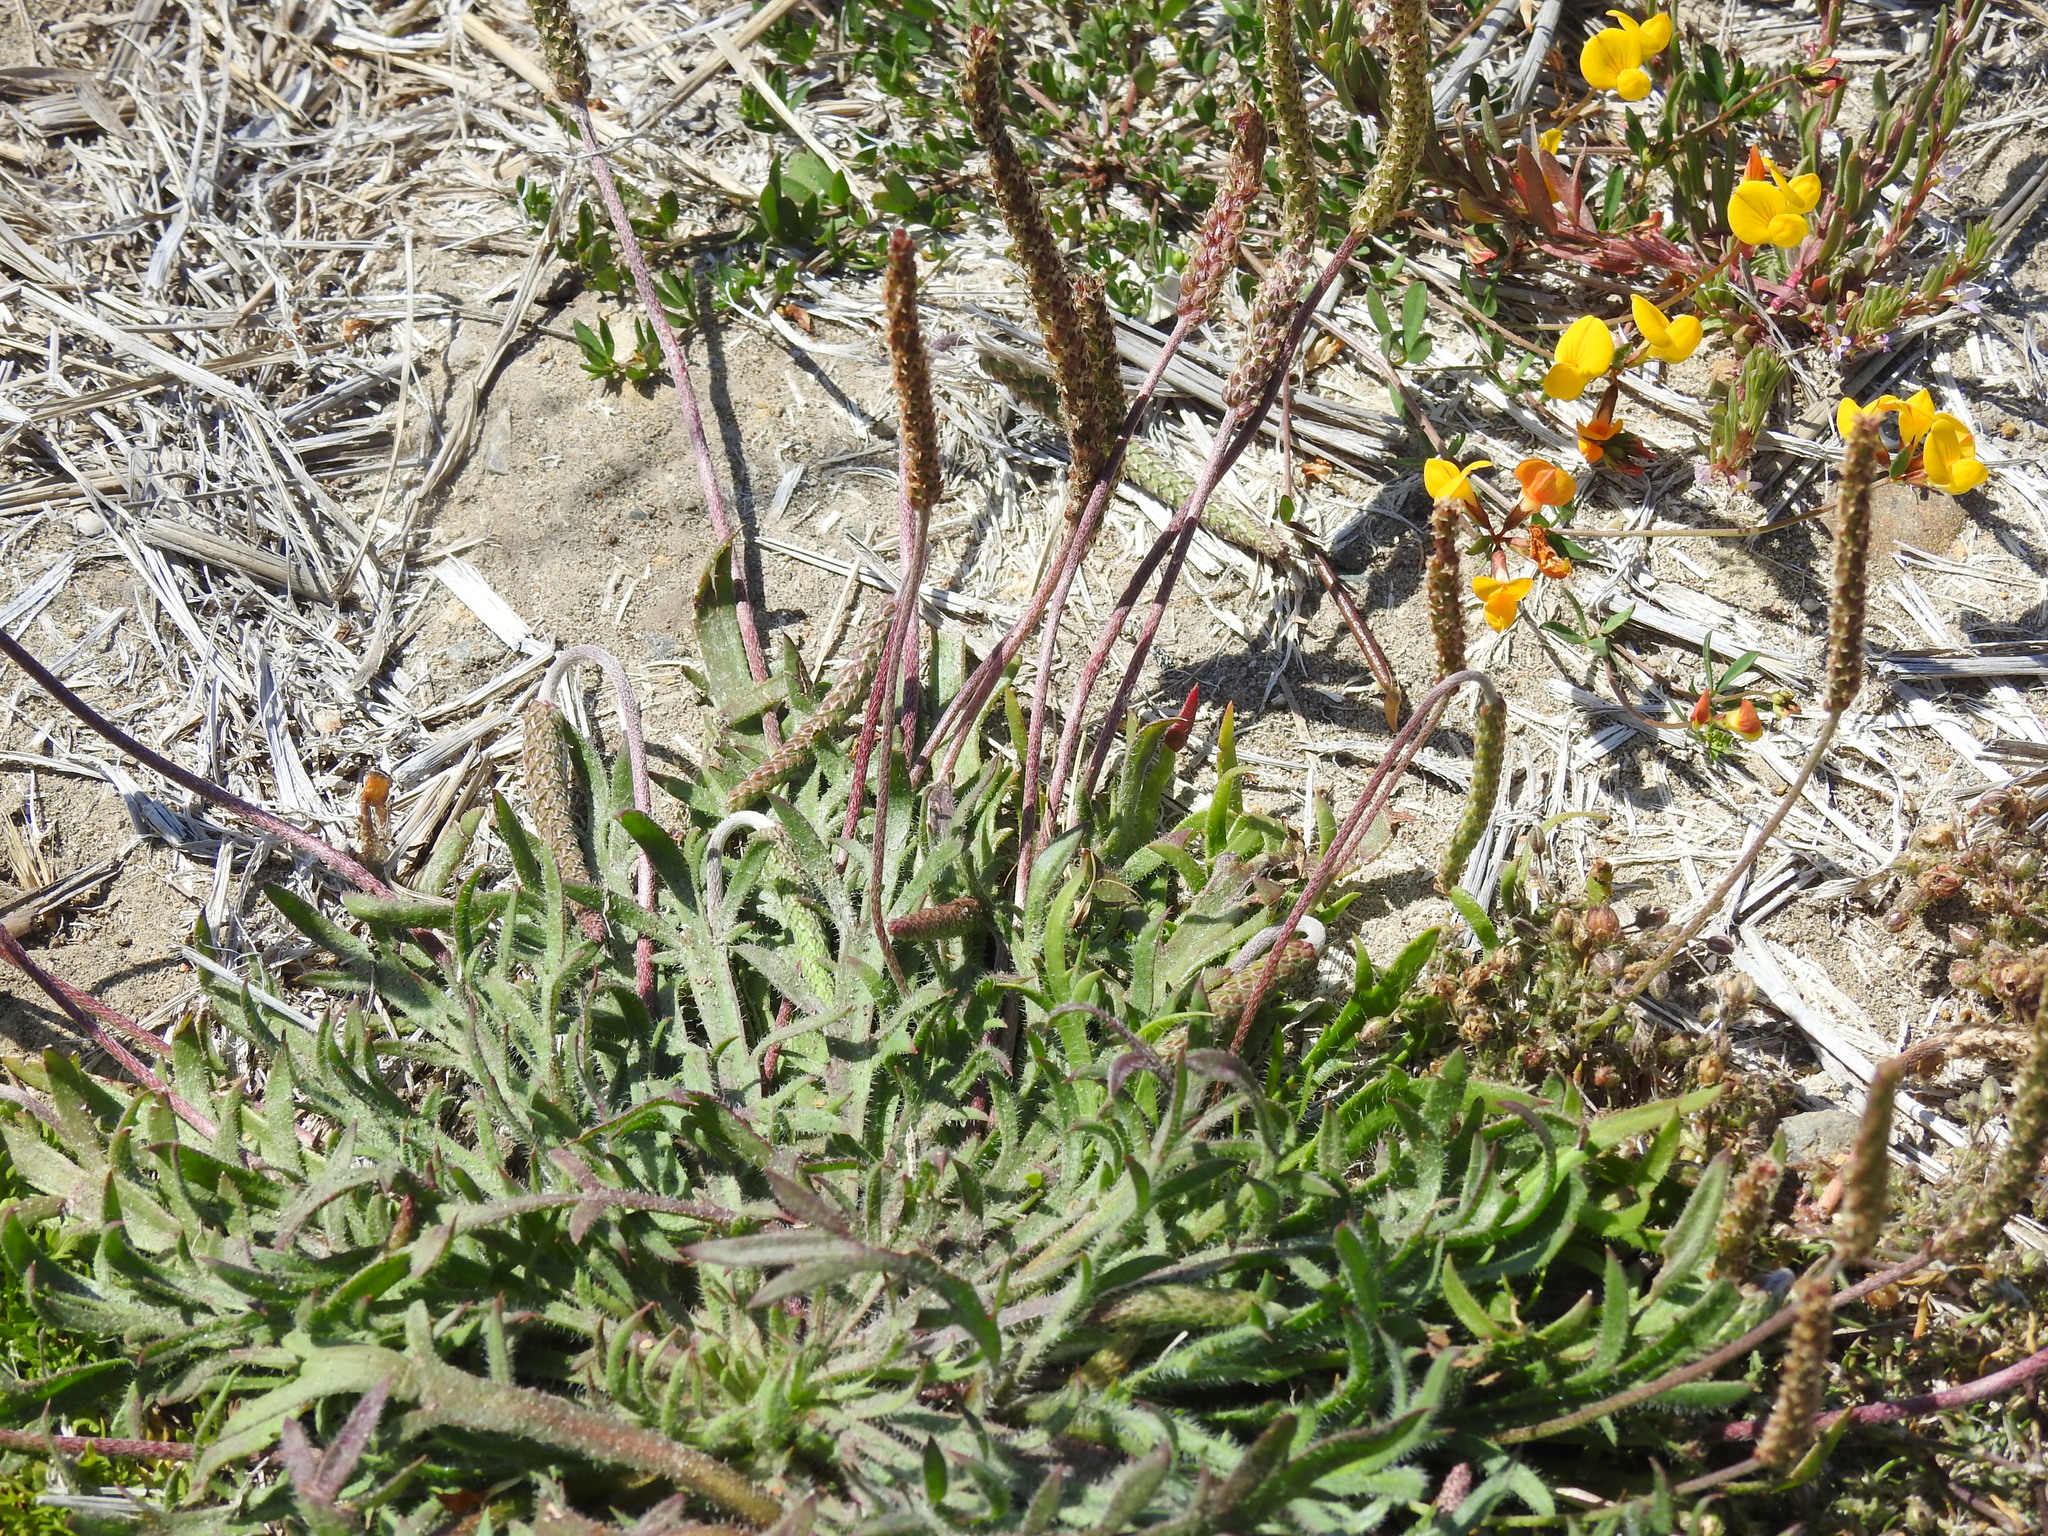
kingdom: Plantae
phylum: Tracheophyta
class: Magnoliopsida
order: Lamiales
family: Plantaginaceae
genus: Plantago
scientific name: Plantago coronopus
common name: Buck's-horn plantain
